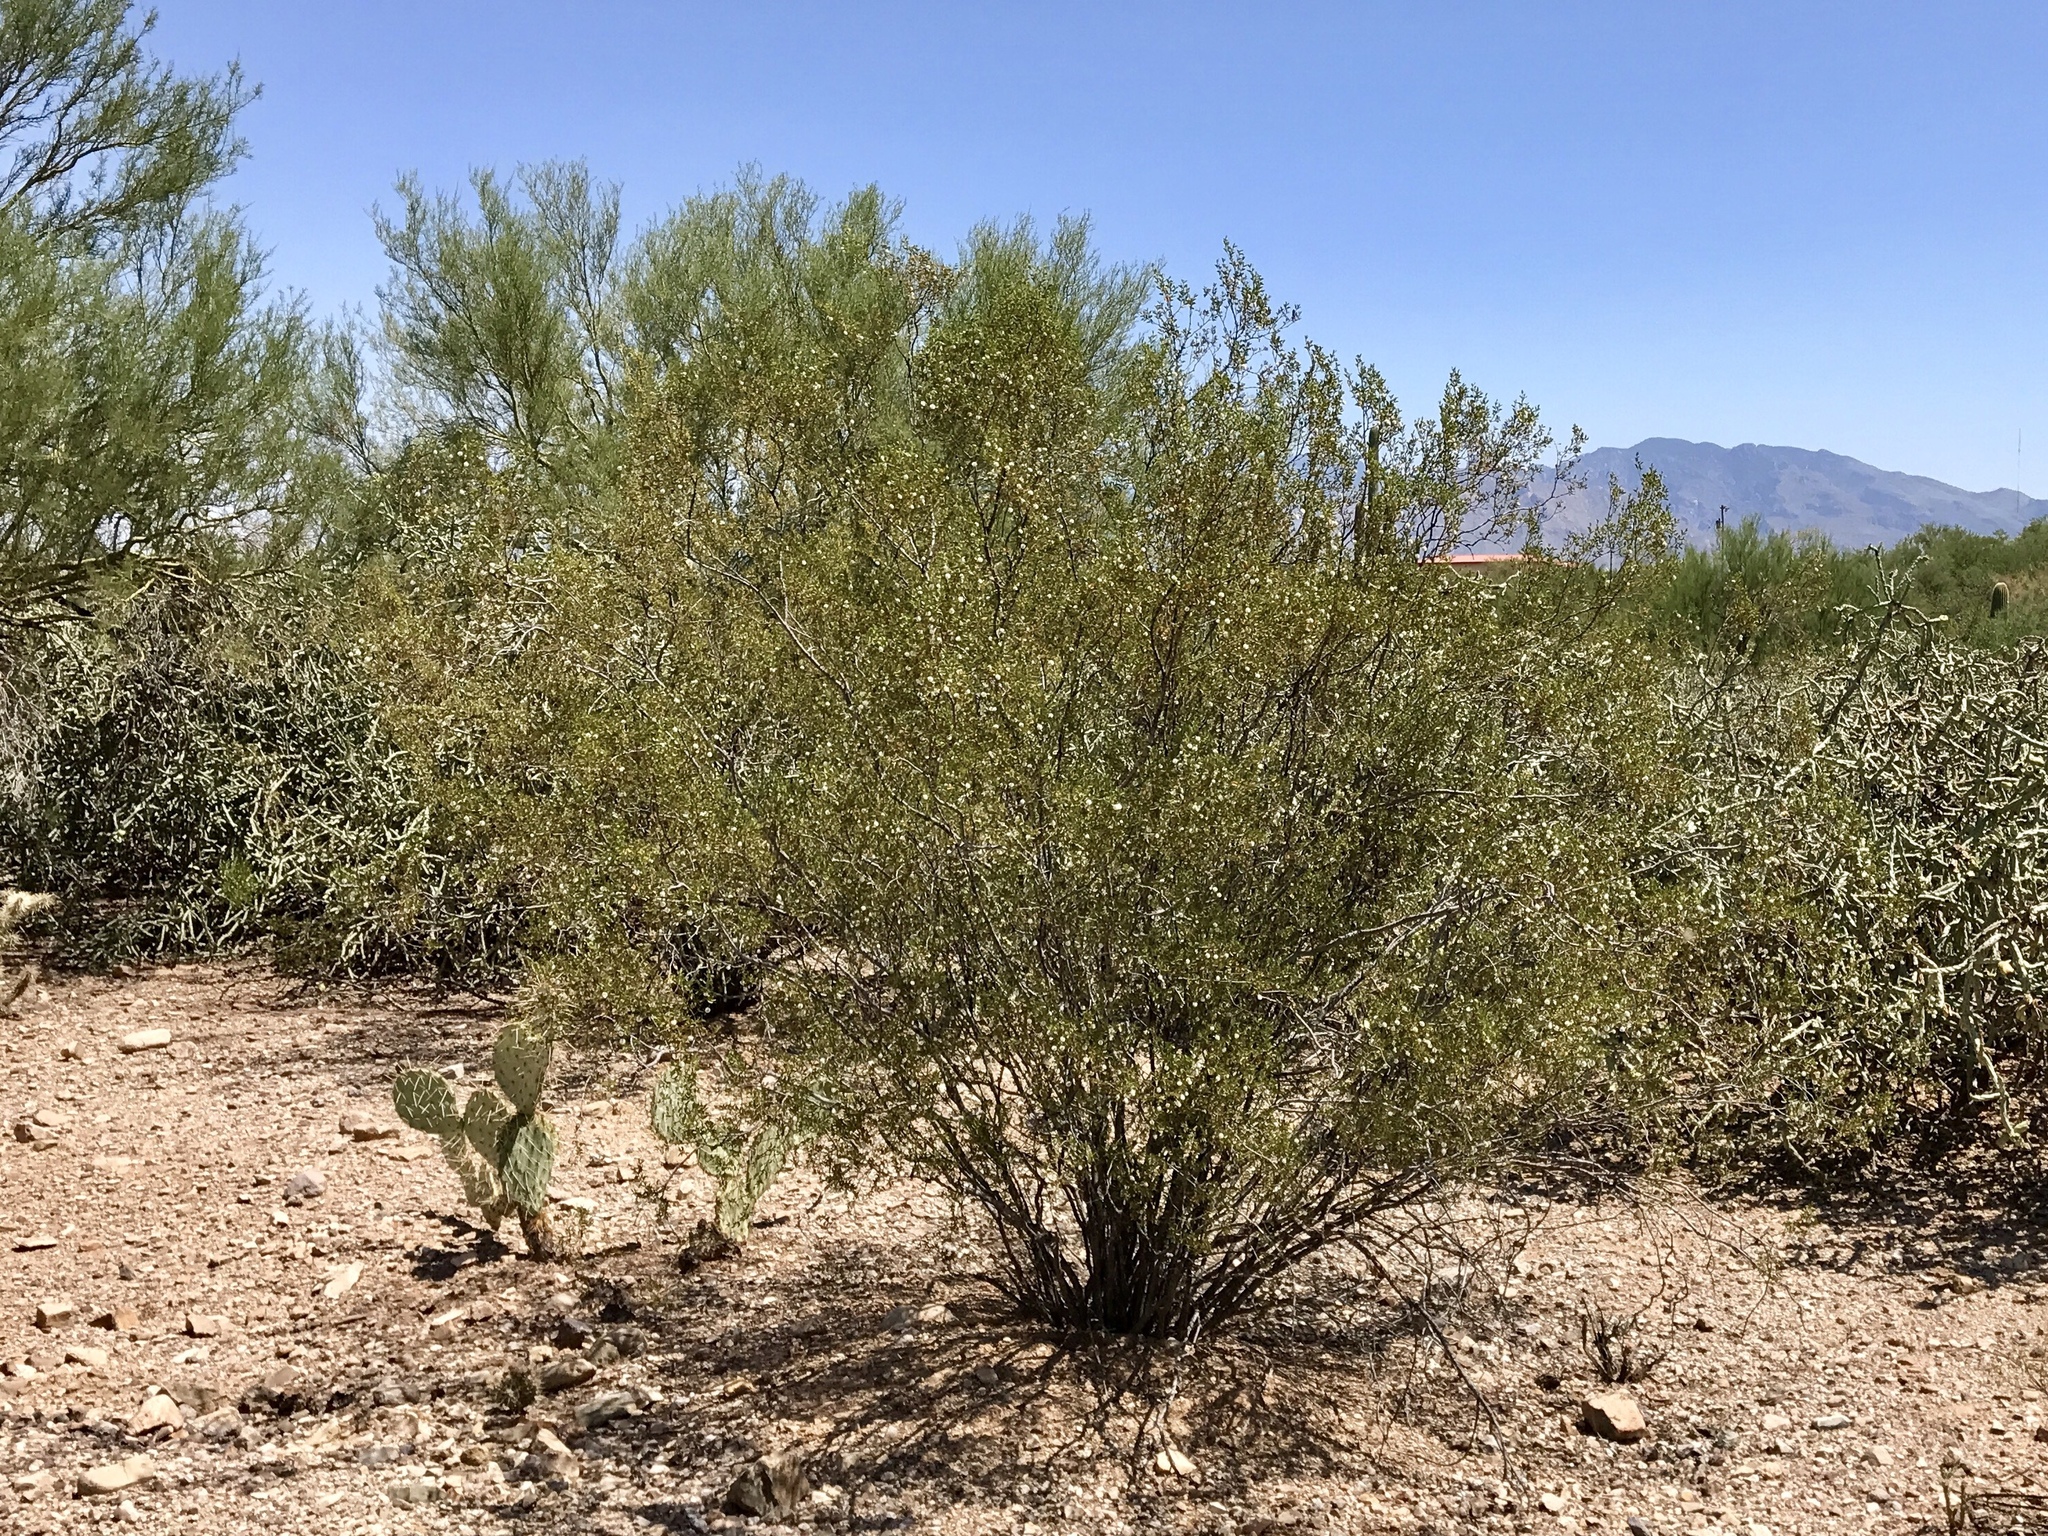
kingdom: Plantae
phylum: Tracheophyta
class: Magnoliopsida
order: Zygophyllales
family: Zygophyllaceae
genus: Larrea
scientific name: Larrea tridentata
